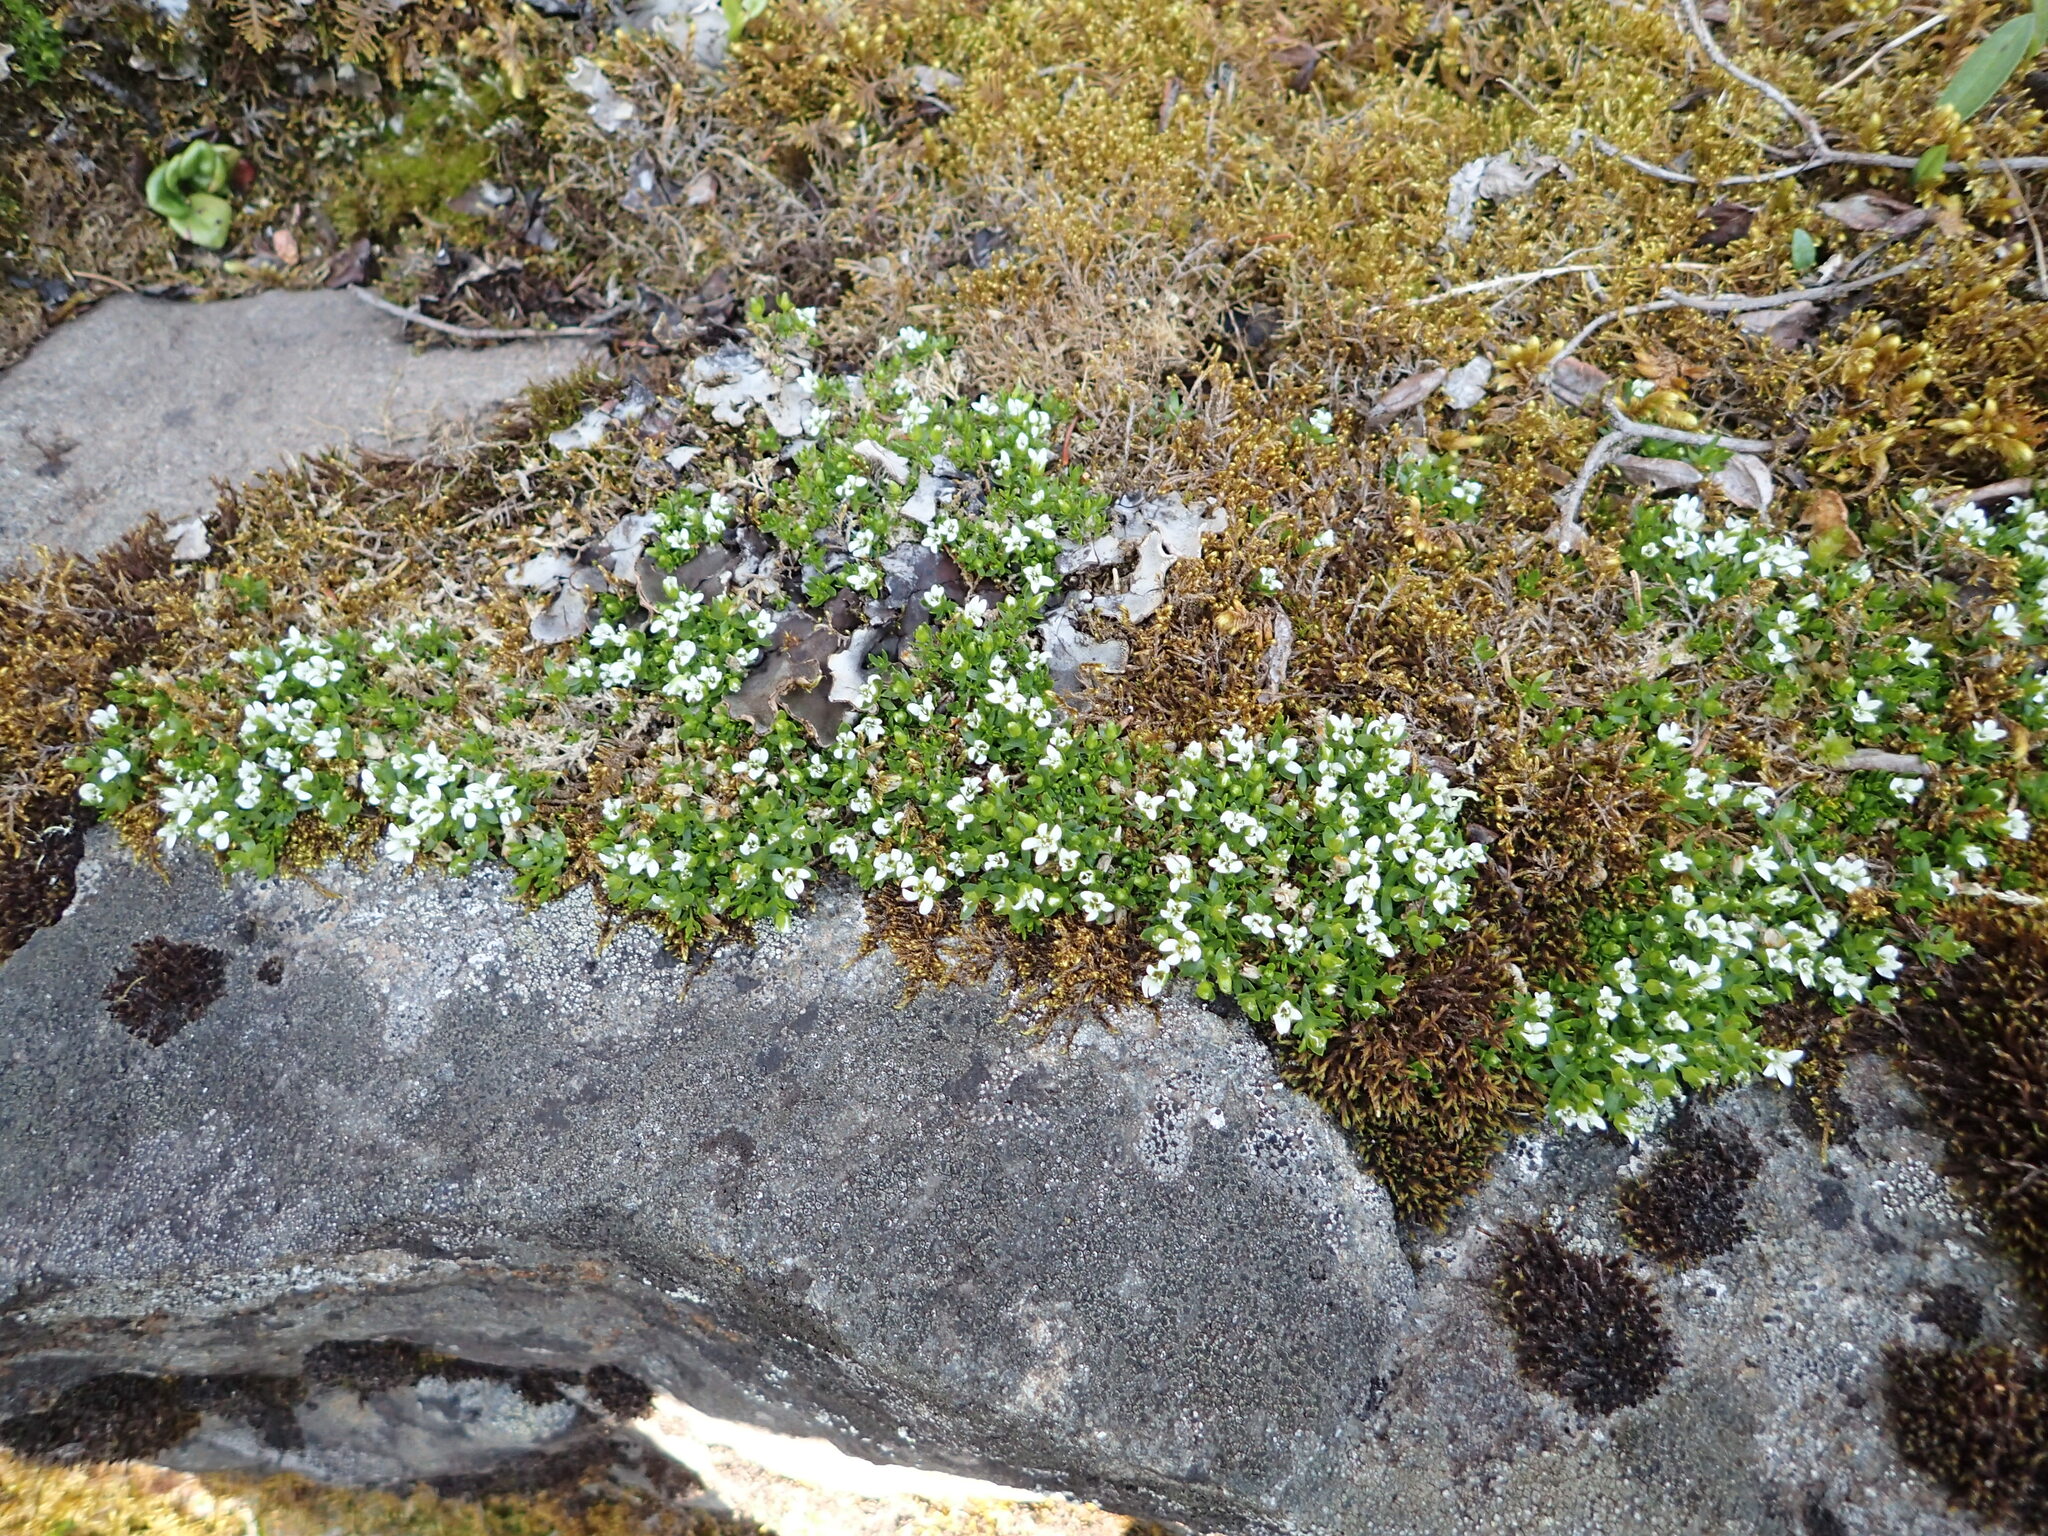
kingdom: Plantae
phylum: Tracheophyta
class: Magnoliopsida
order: Caryophyllales
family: Caryophyllaceae
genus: Arenaria
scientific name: Arenaria humifusa
